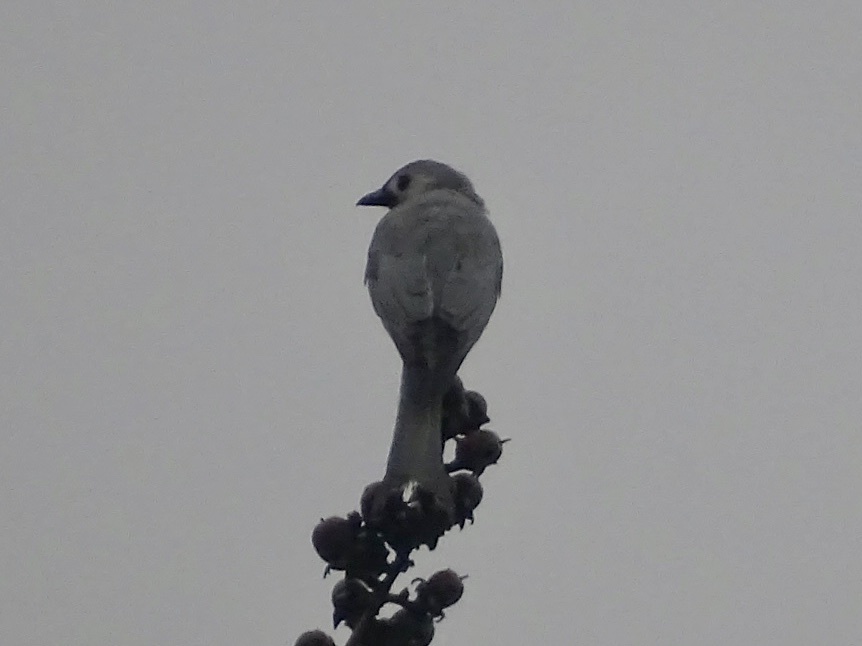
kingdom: Animalia
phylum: Chordata
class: Aves
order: Passeriformes
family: Dicruridae
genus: Dicrurus
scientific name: Dicrurus leucophaeus
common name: Ashy drongo
